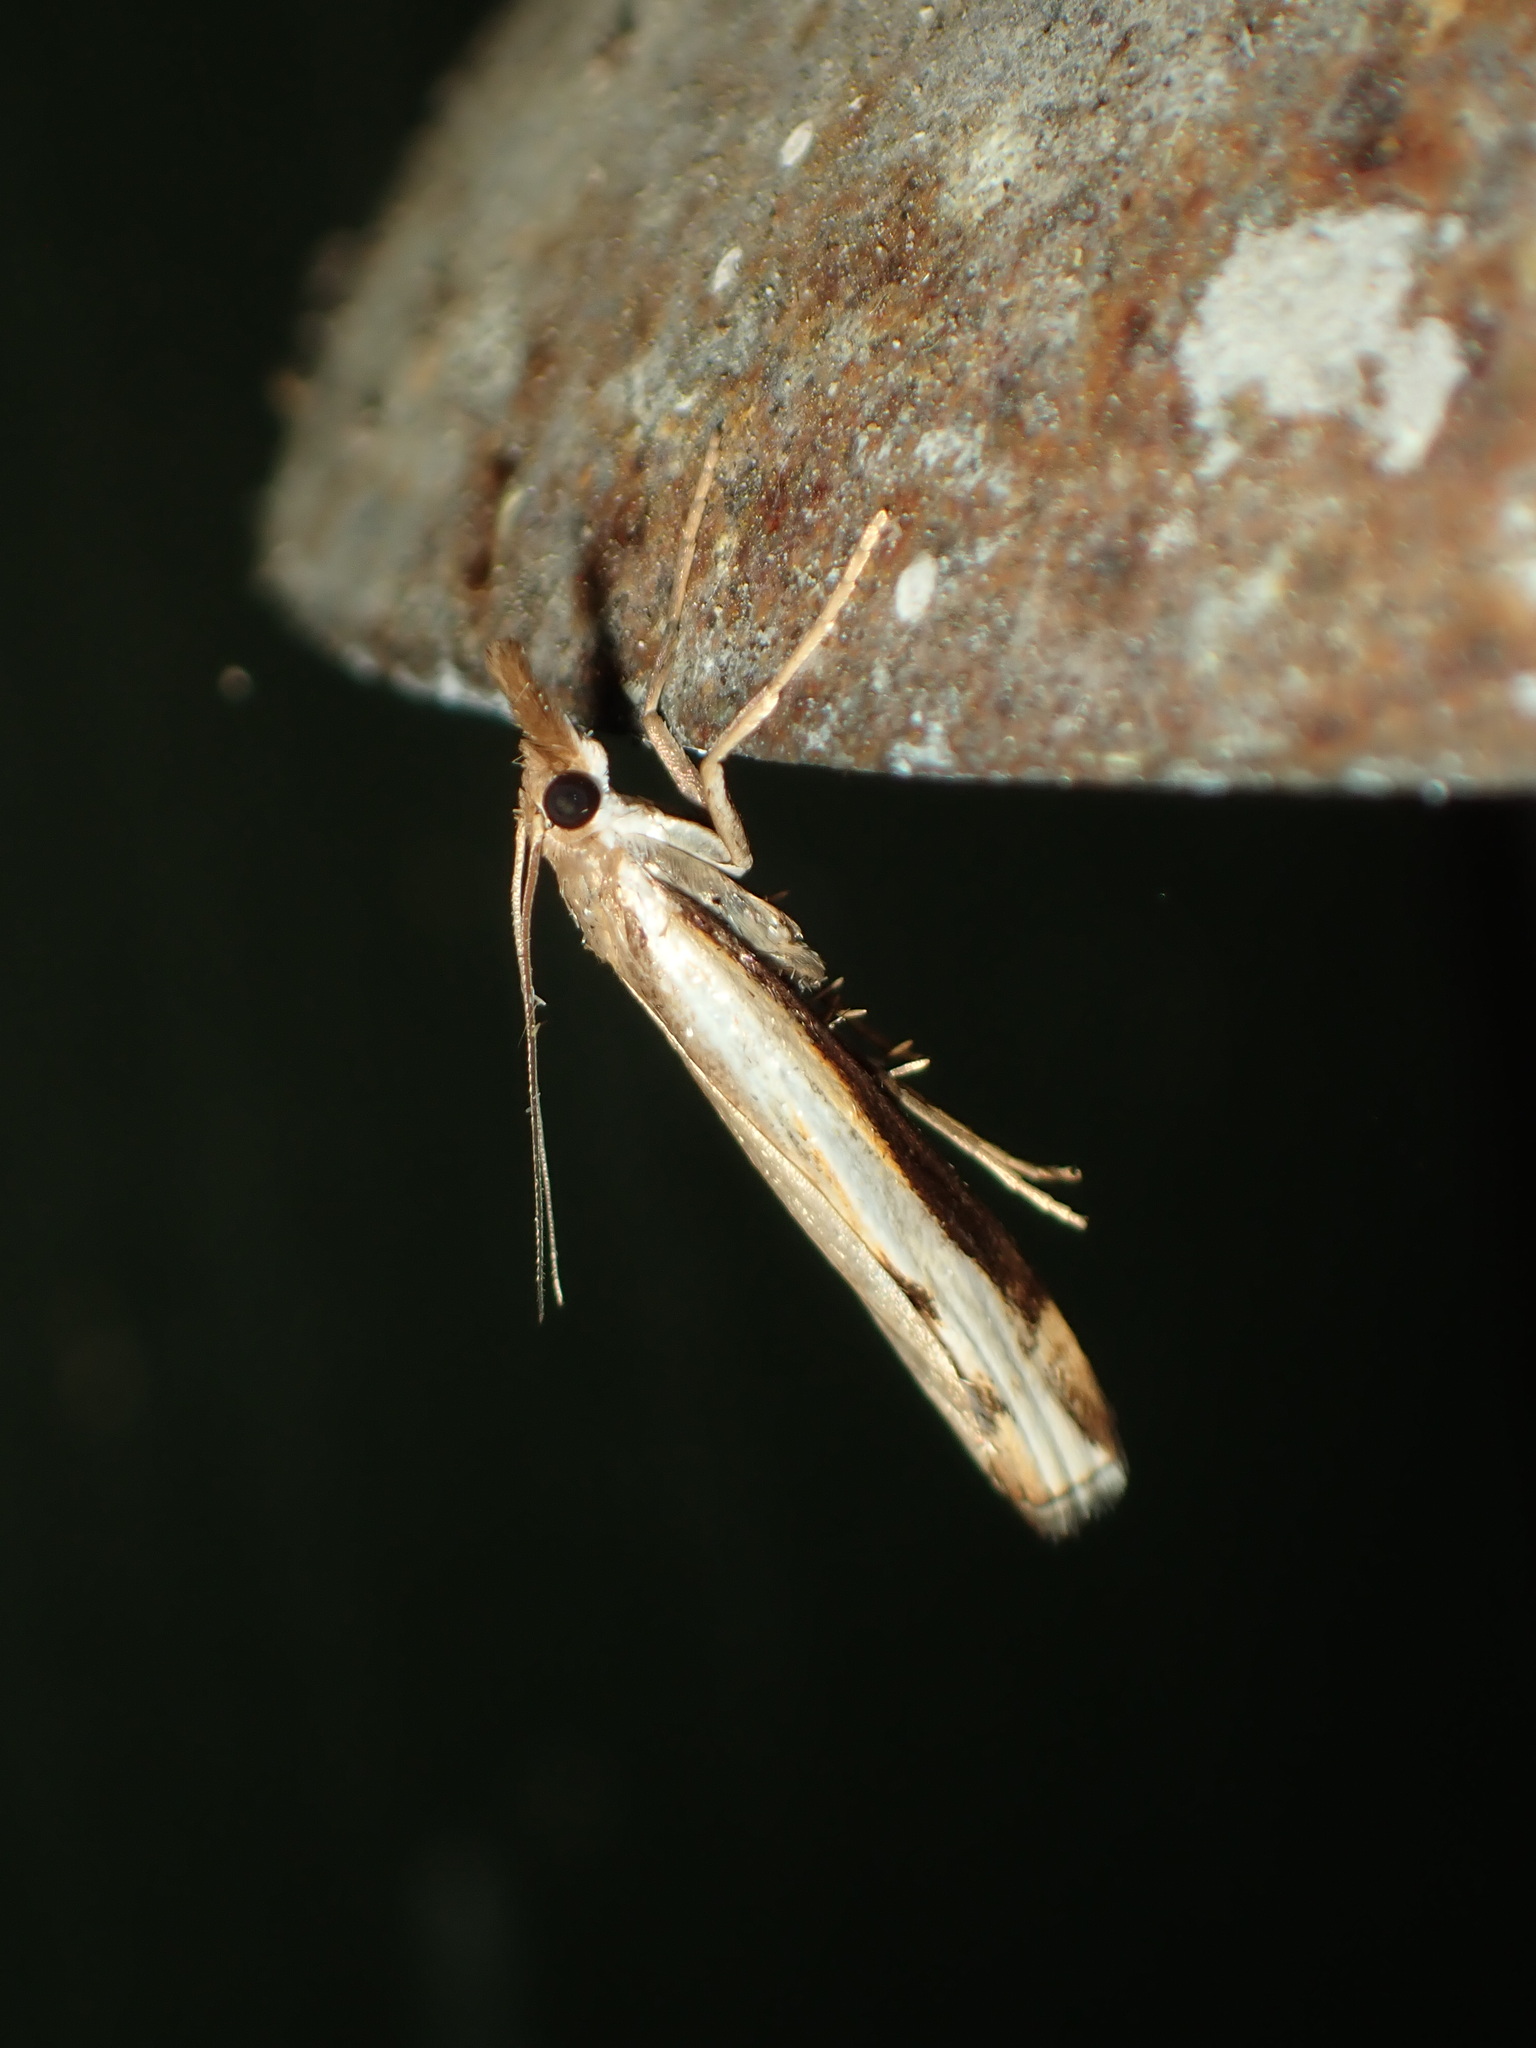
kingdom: Animalia
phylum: Arthropoda
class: Insecta
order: Lepidoptera
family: Crambidae
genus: Orocrambus
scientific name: Orocrambus flexuosellus
